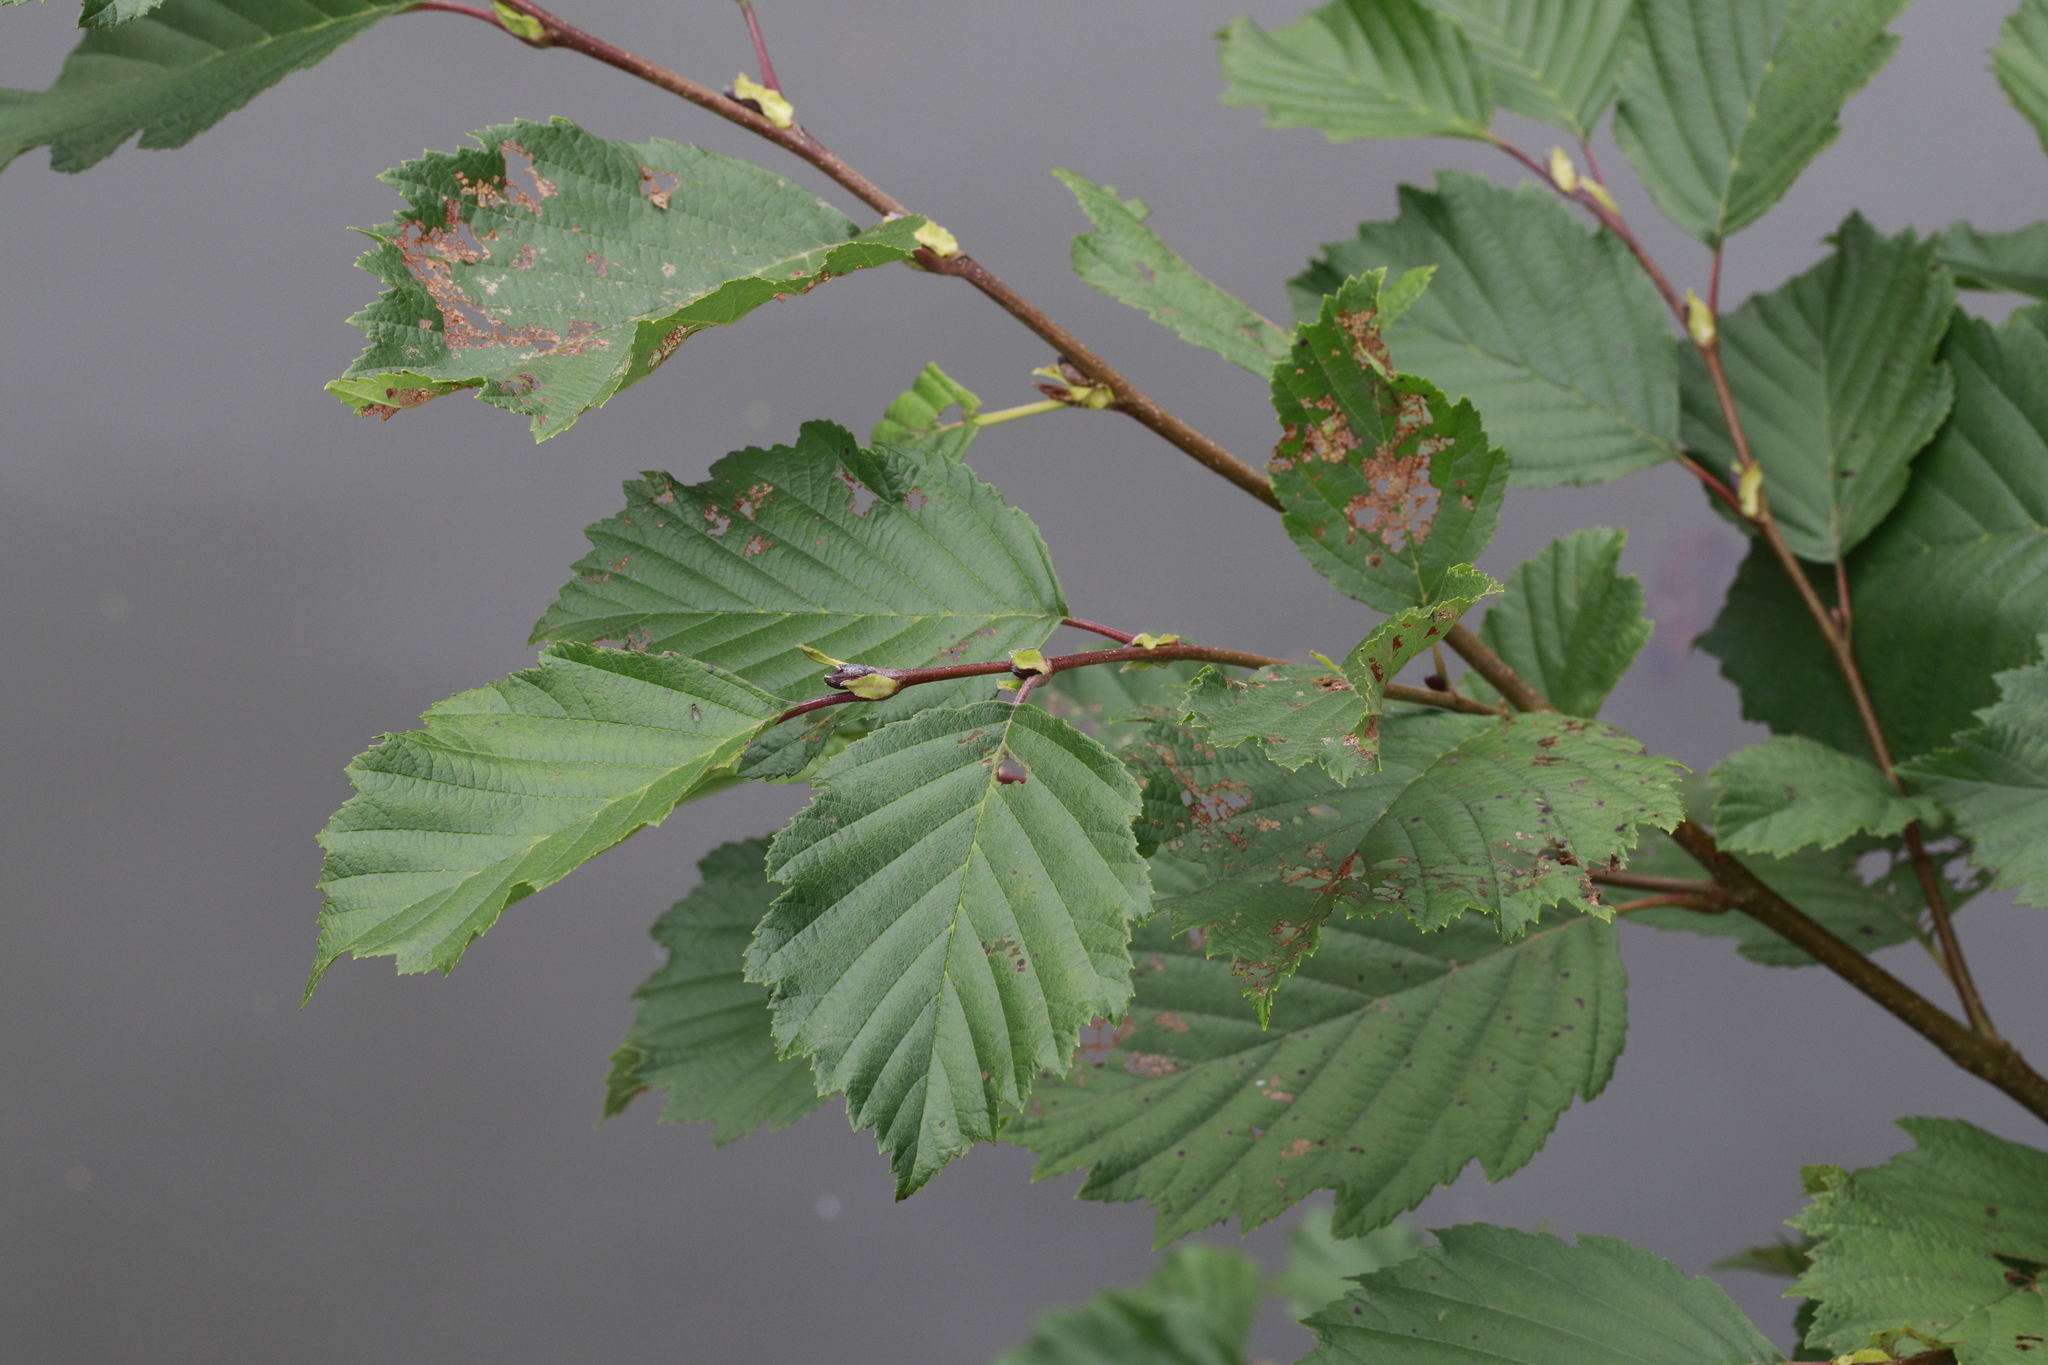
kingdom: Plantae
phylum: Tracheophyta
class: Magnoliopsida
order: Fagales
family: Betulaceae
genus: Alnus
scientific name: Alnus incana
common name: Grey alder
